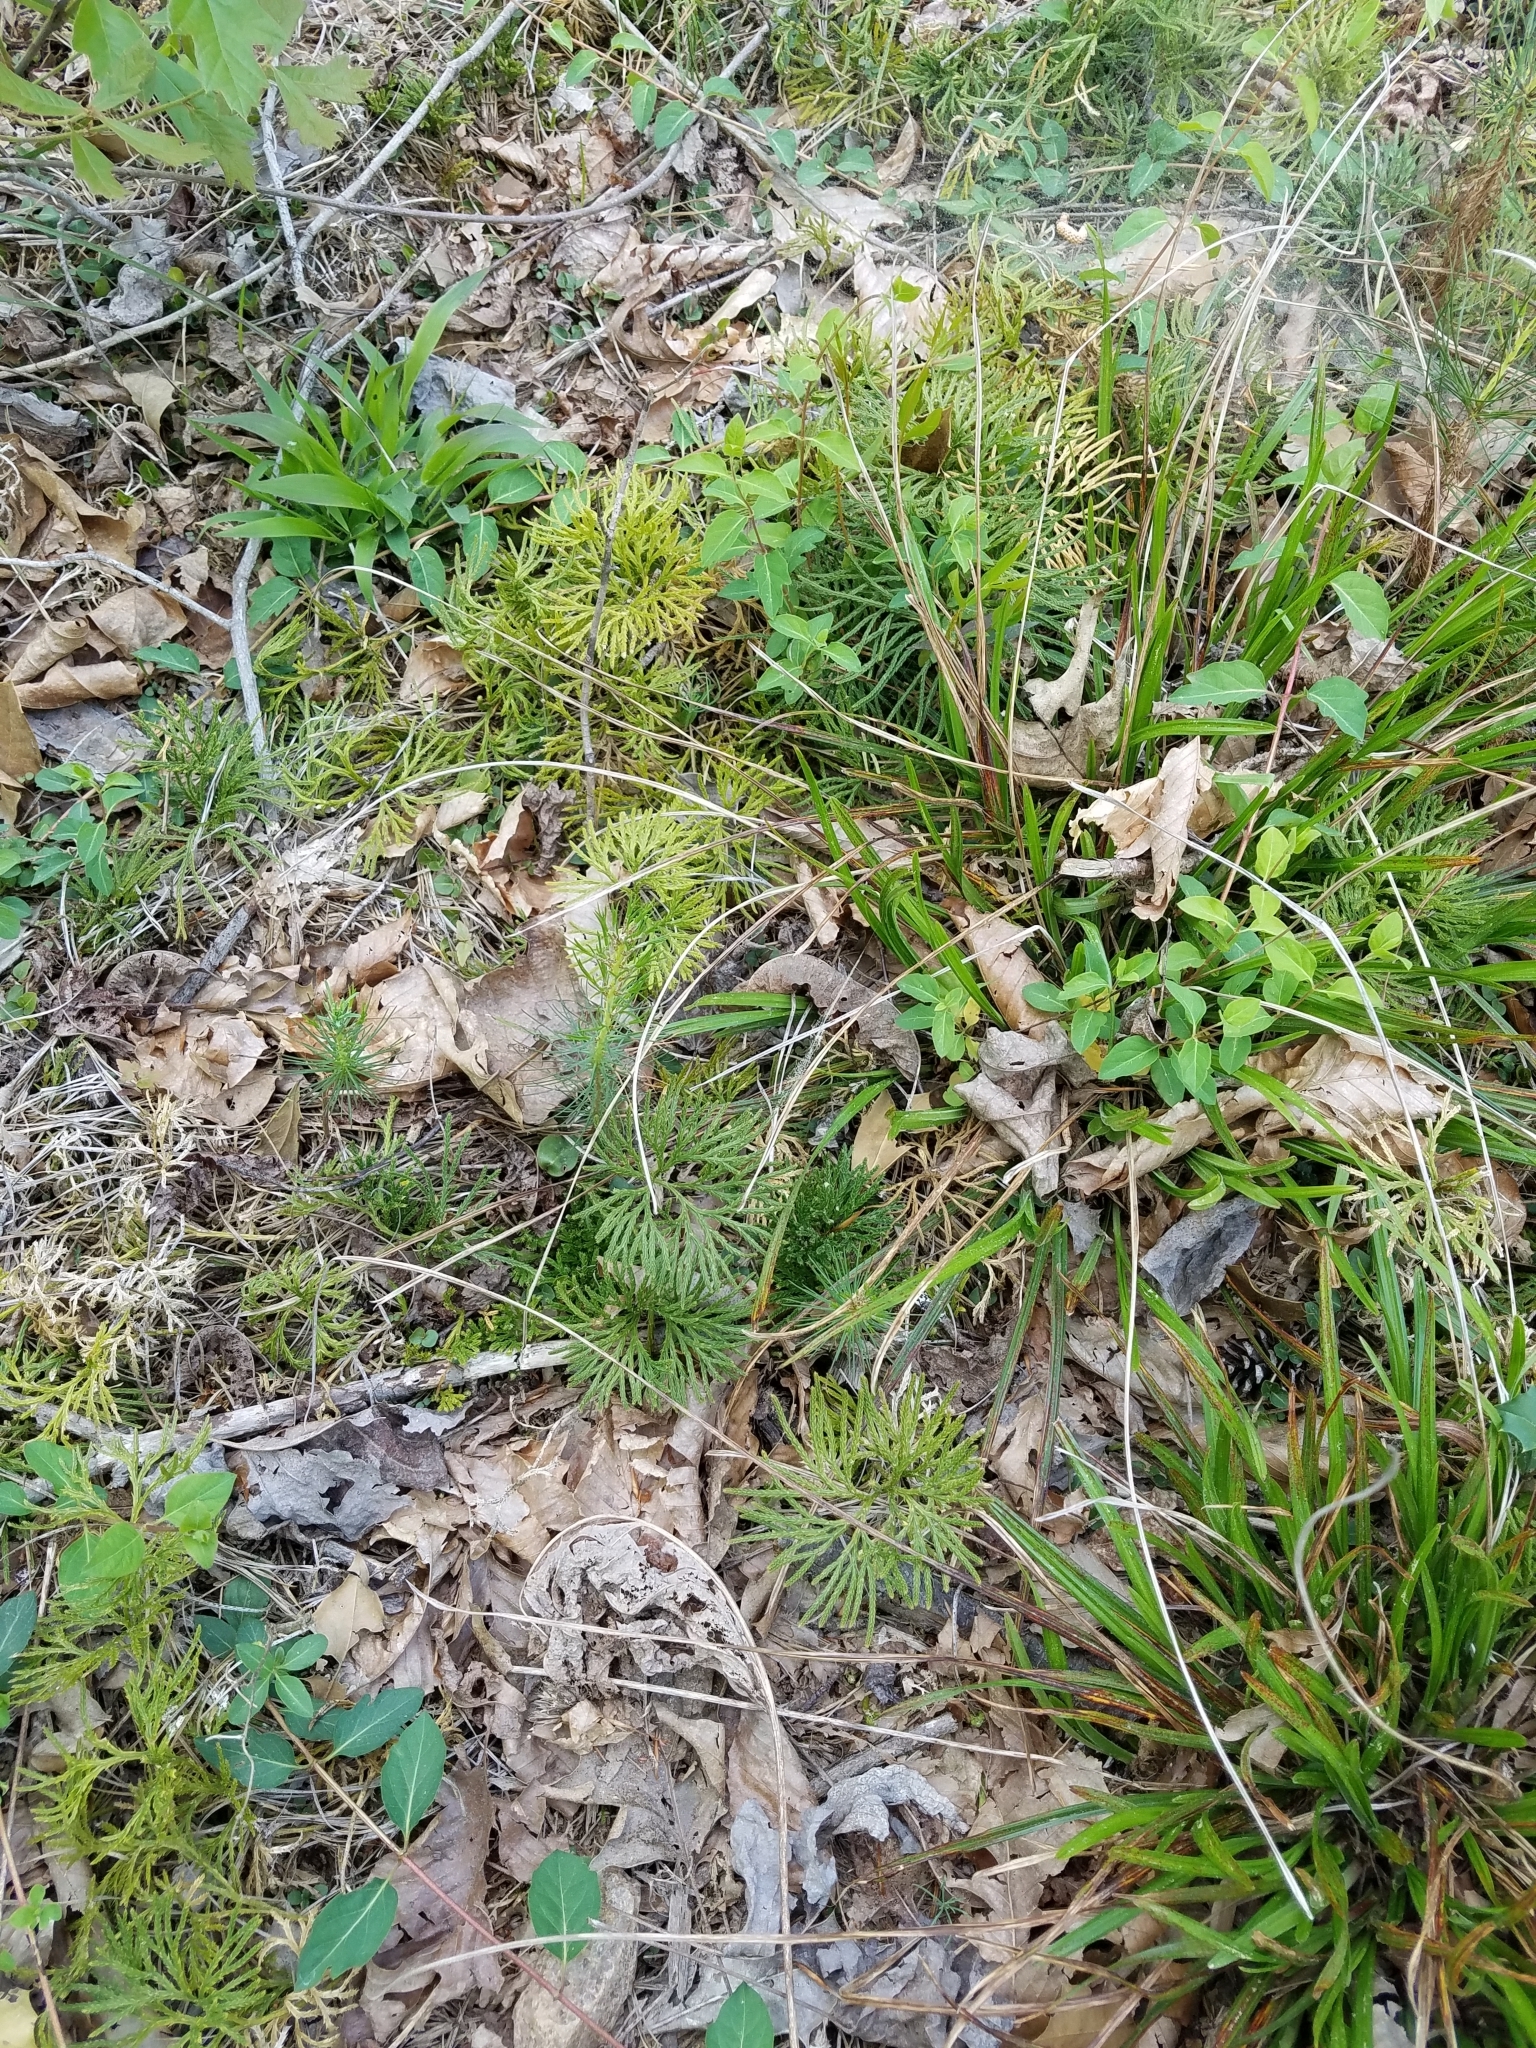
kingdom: Plantae
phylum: Tracheophyta
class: Lycopodiopsida
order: Lycopodiales
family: Lycopodiaceae
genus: Diphasiastrum
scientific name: Diphasiastrum digitatum
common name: Southern running-pine
